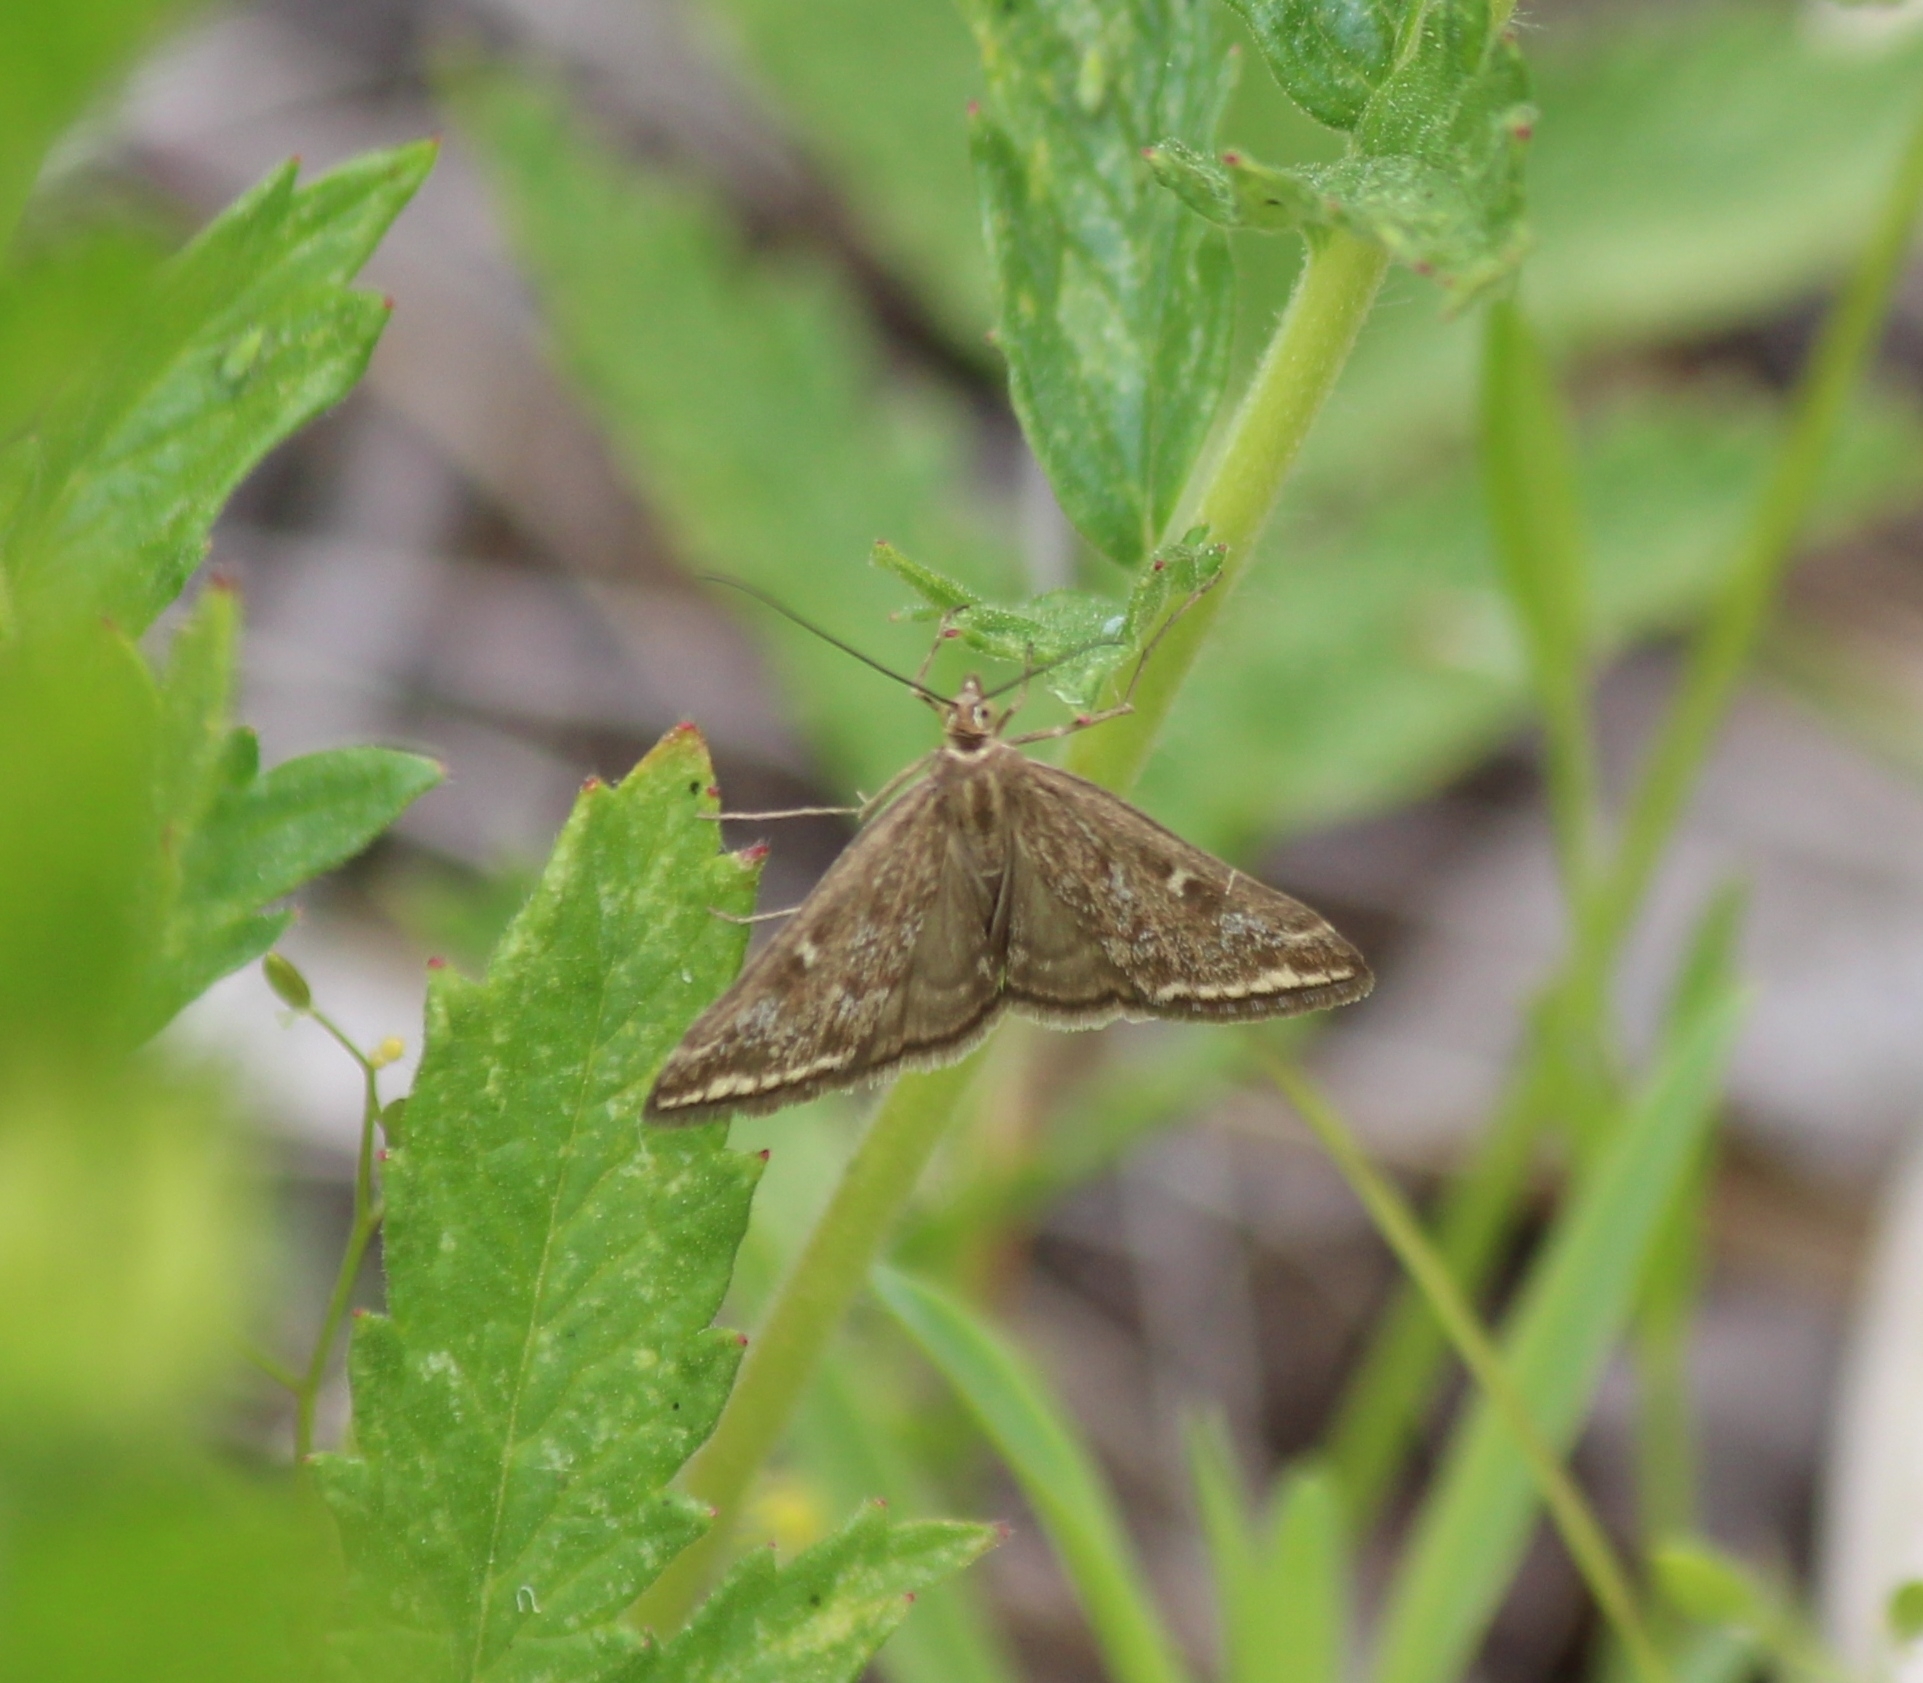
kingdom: Animalia
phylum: Arthropoda
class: Insecta
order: Lepidoptera
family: Crambidae
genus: Loxostege
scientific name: Loxostege sticticalis
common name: Crambid moth
